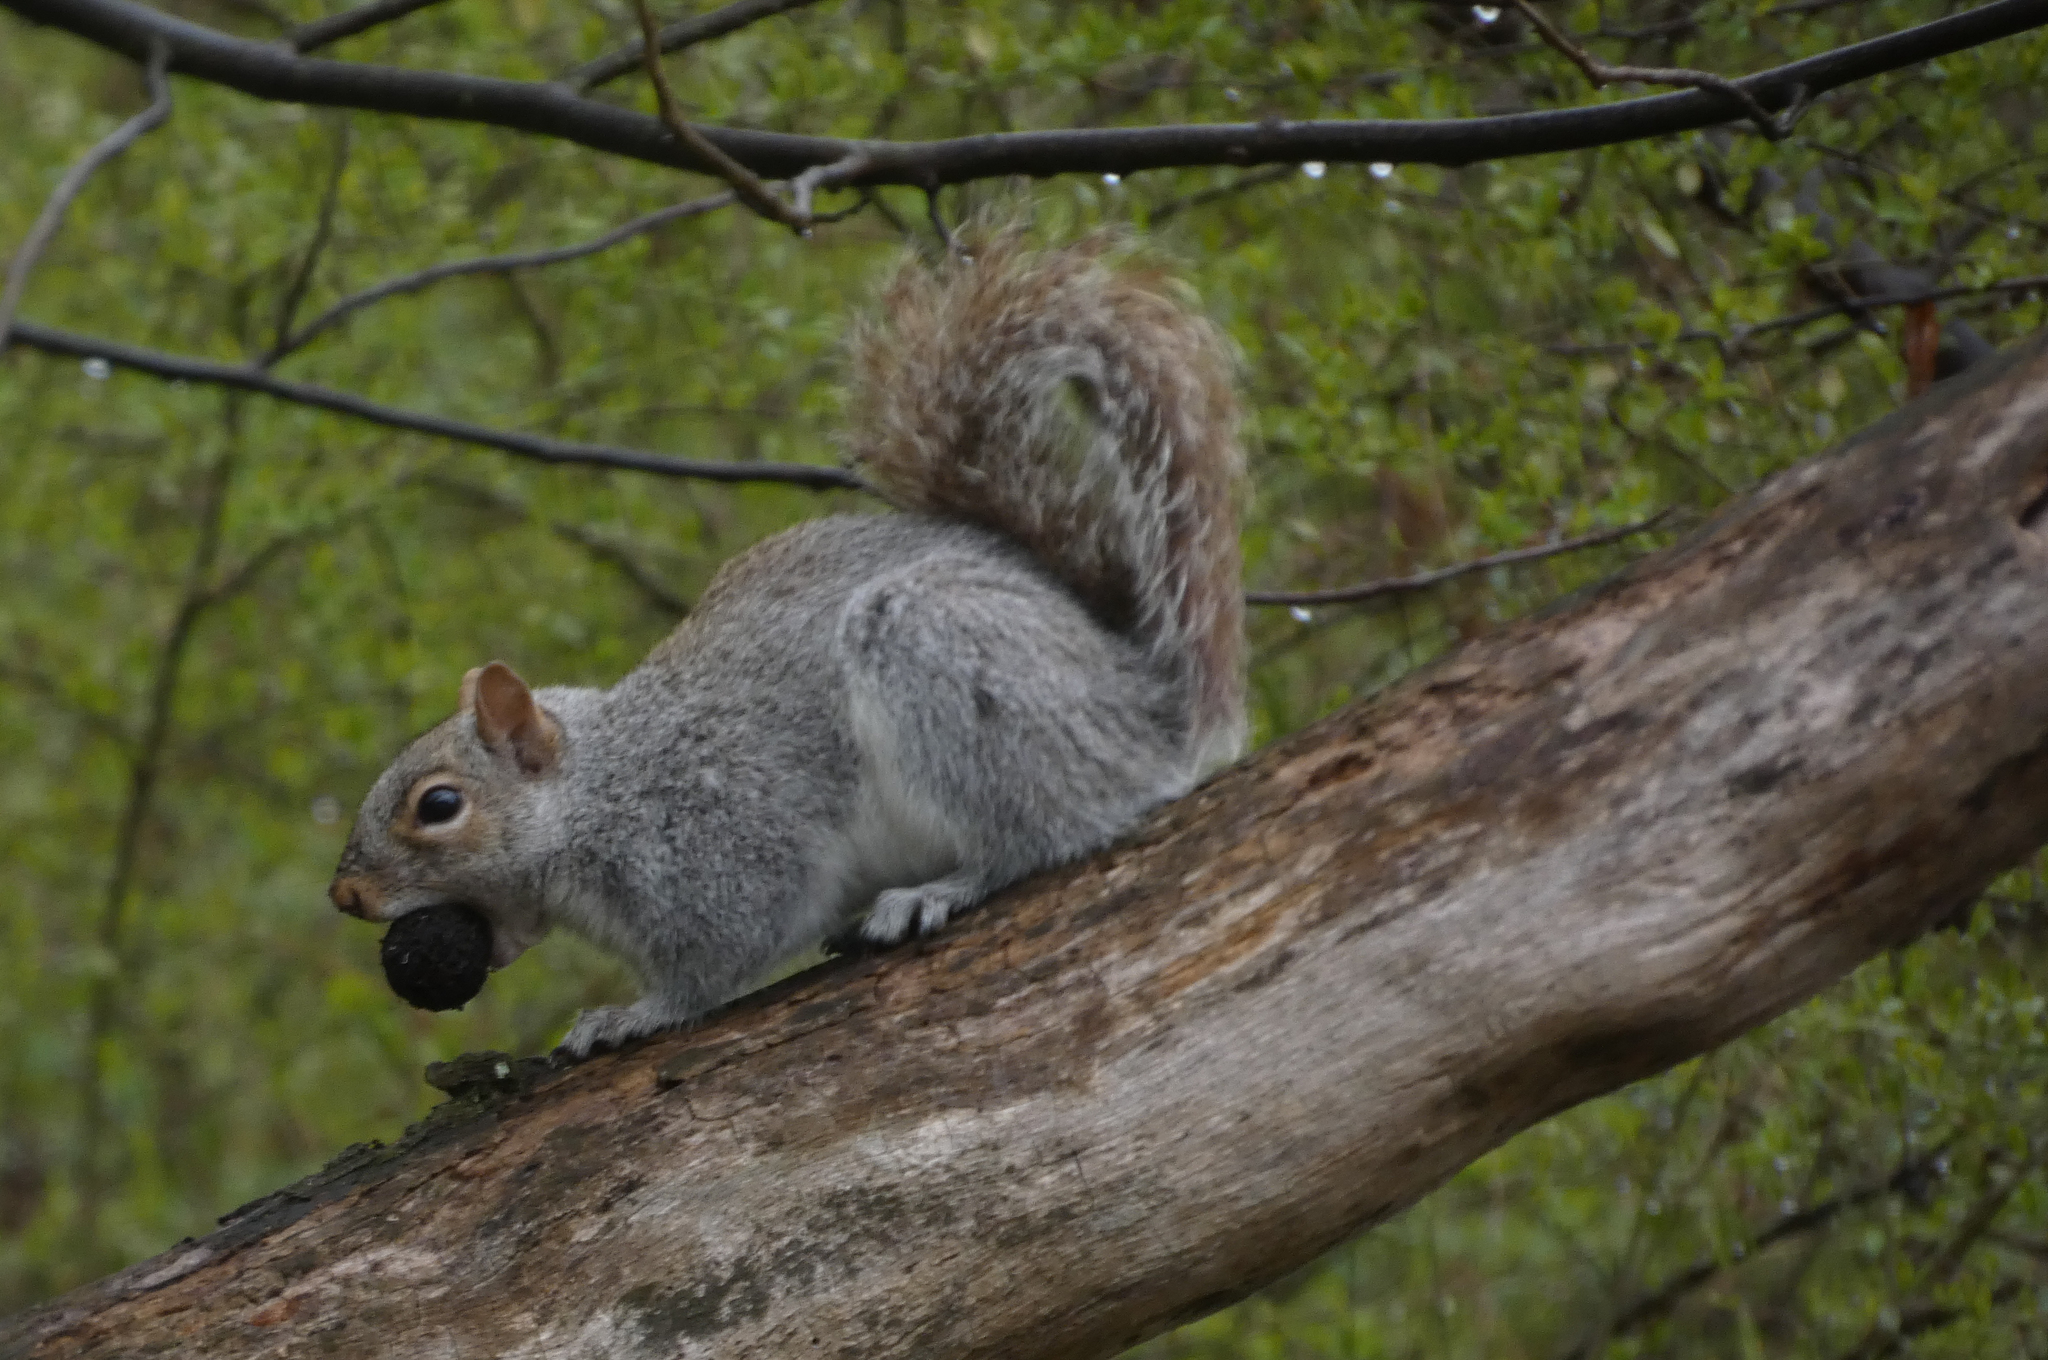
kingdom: Animalia
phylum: Chordata
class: Mammalia
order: Rodentia
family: Sciuridae
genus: Sciurus
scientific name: Sciurus carolinensis
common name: Eastern gray squirrel
